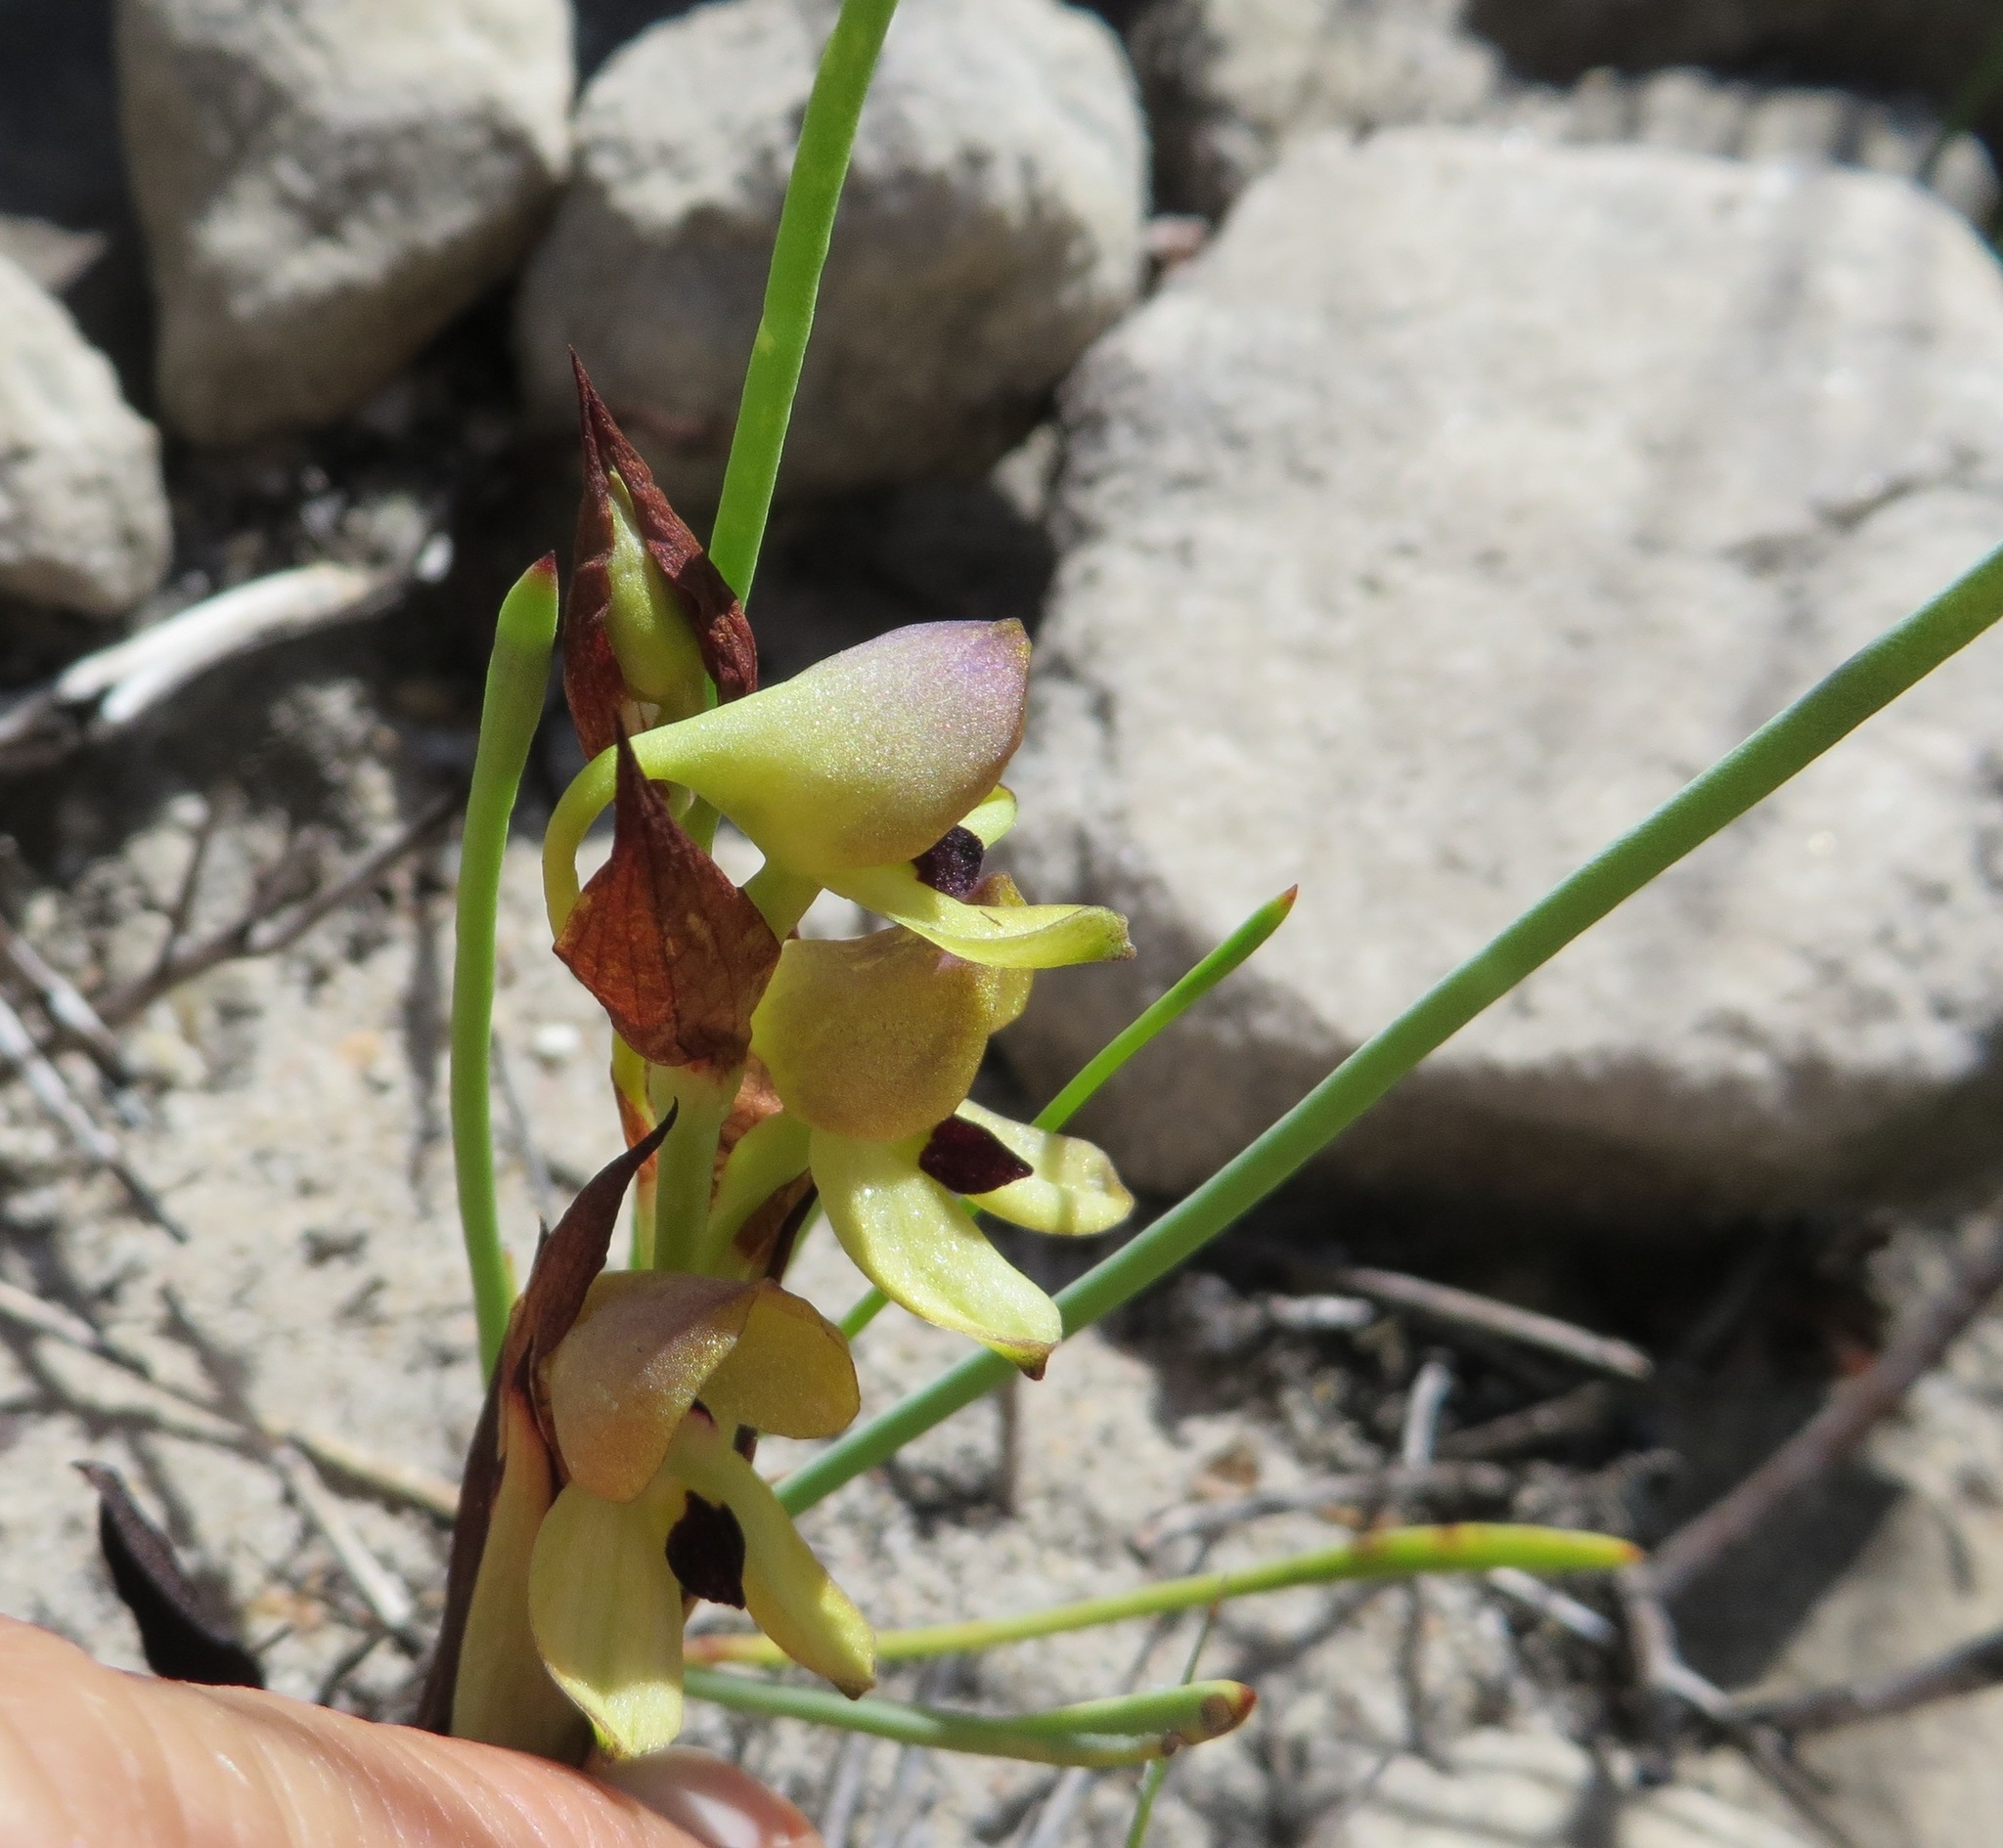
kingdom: Plantae
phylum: Tracheophyta
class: Liliopsida
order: Asparagales
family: Orchidaceae
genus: Disa
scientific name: Disa cornuta
